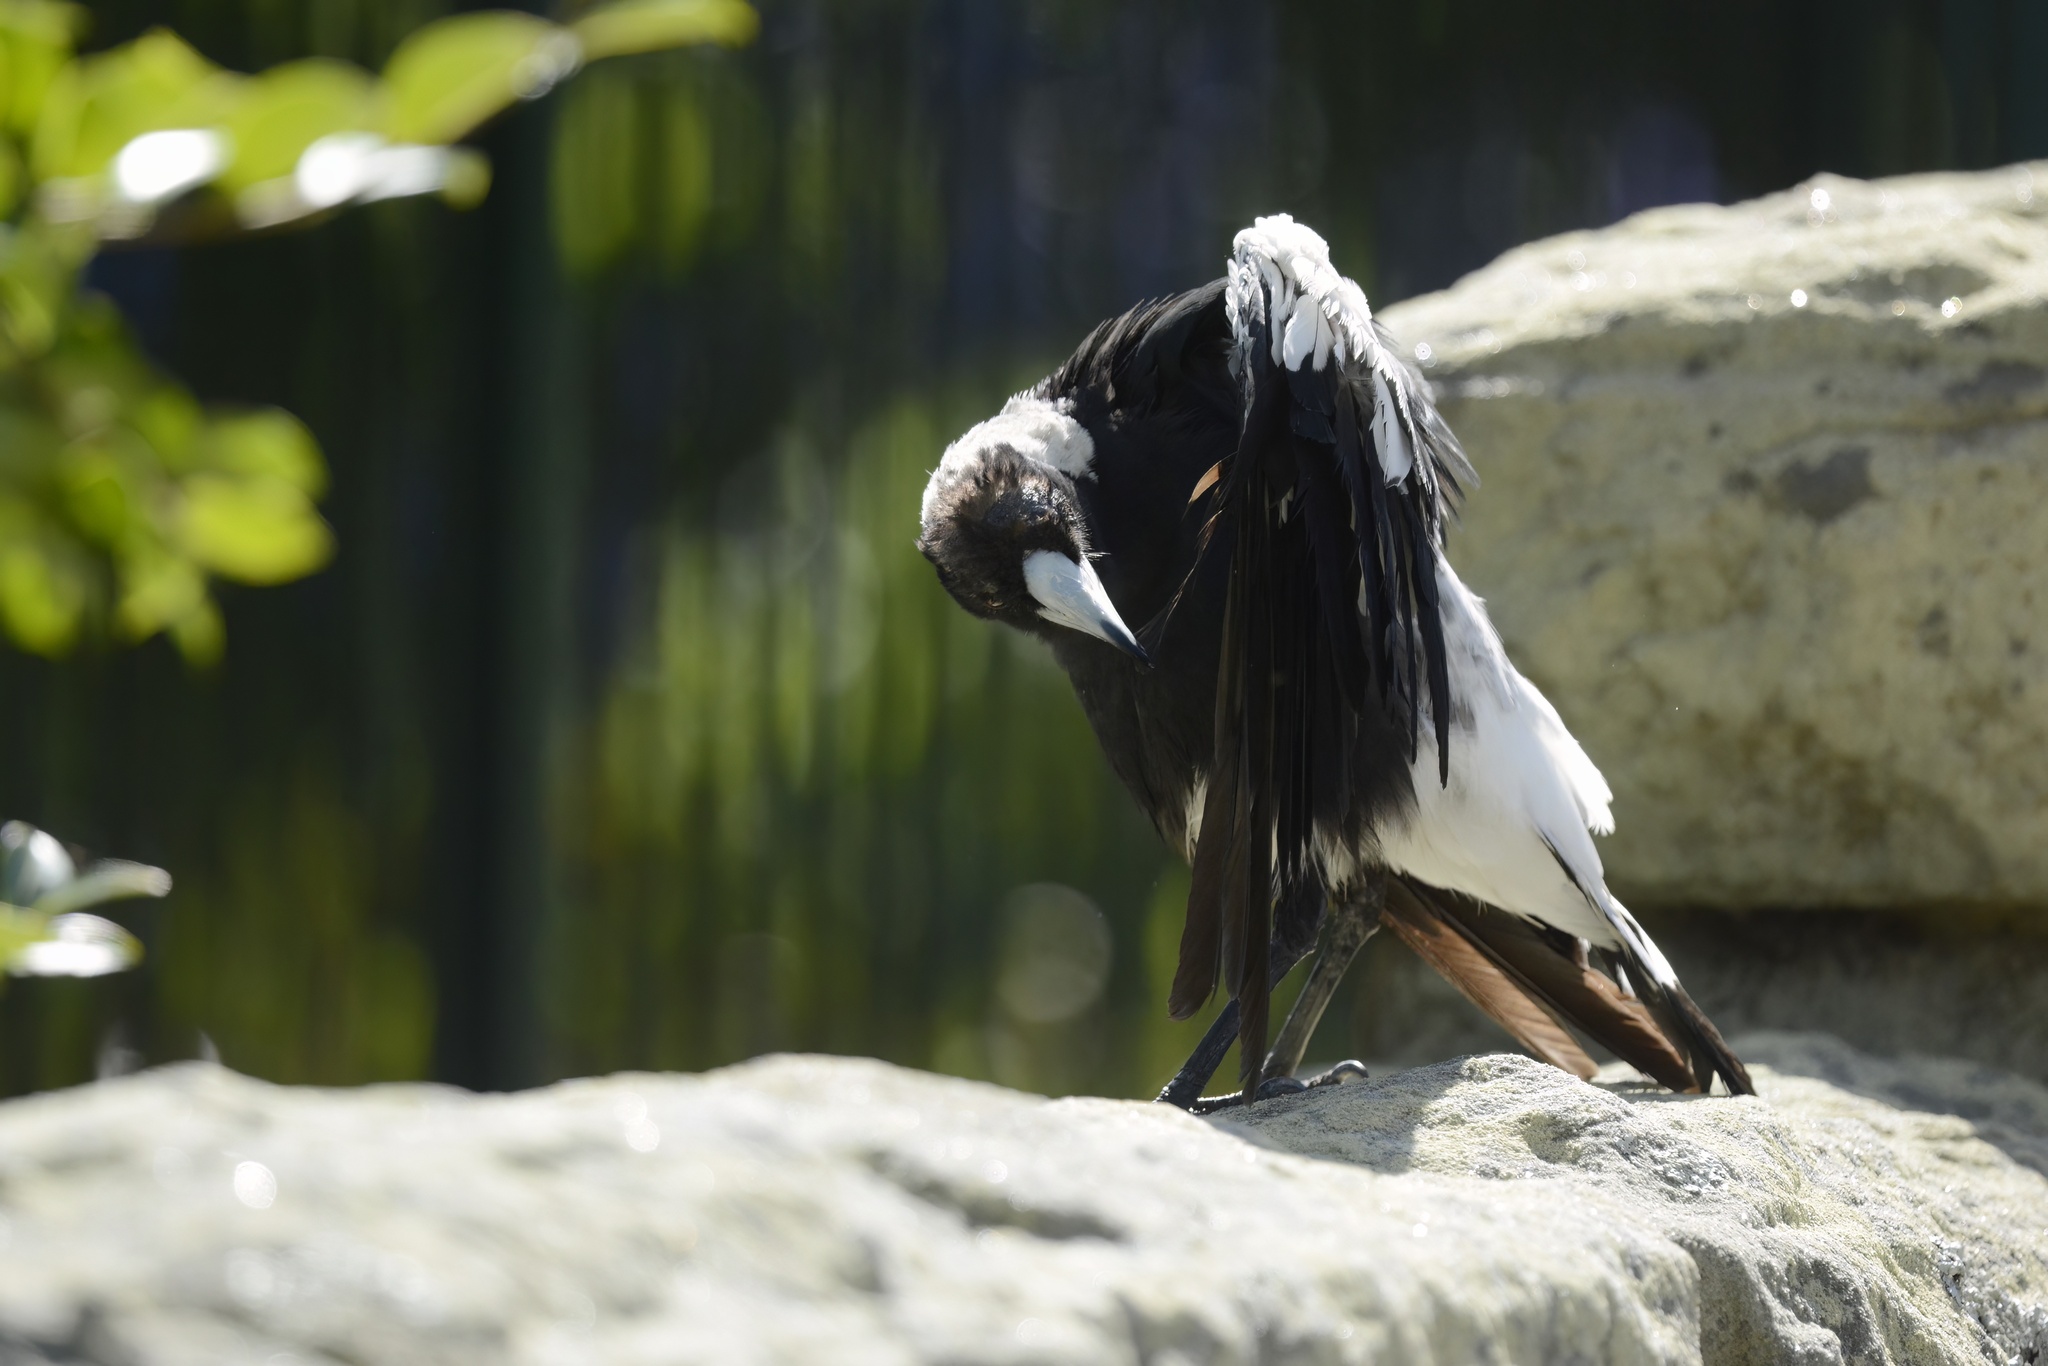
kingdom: Animalia
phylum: Chordata
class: Aves
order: Passeriformes
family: Cracticidae
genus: Gymnorhina
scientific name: Gymnorhina tibicen
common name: Australian magpie
